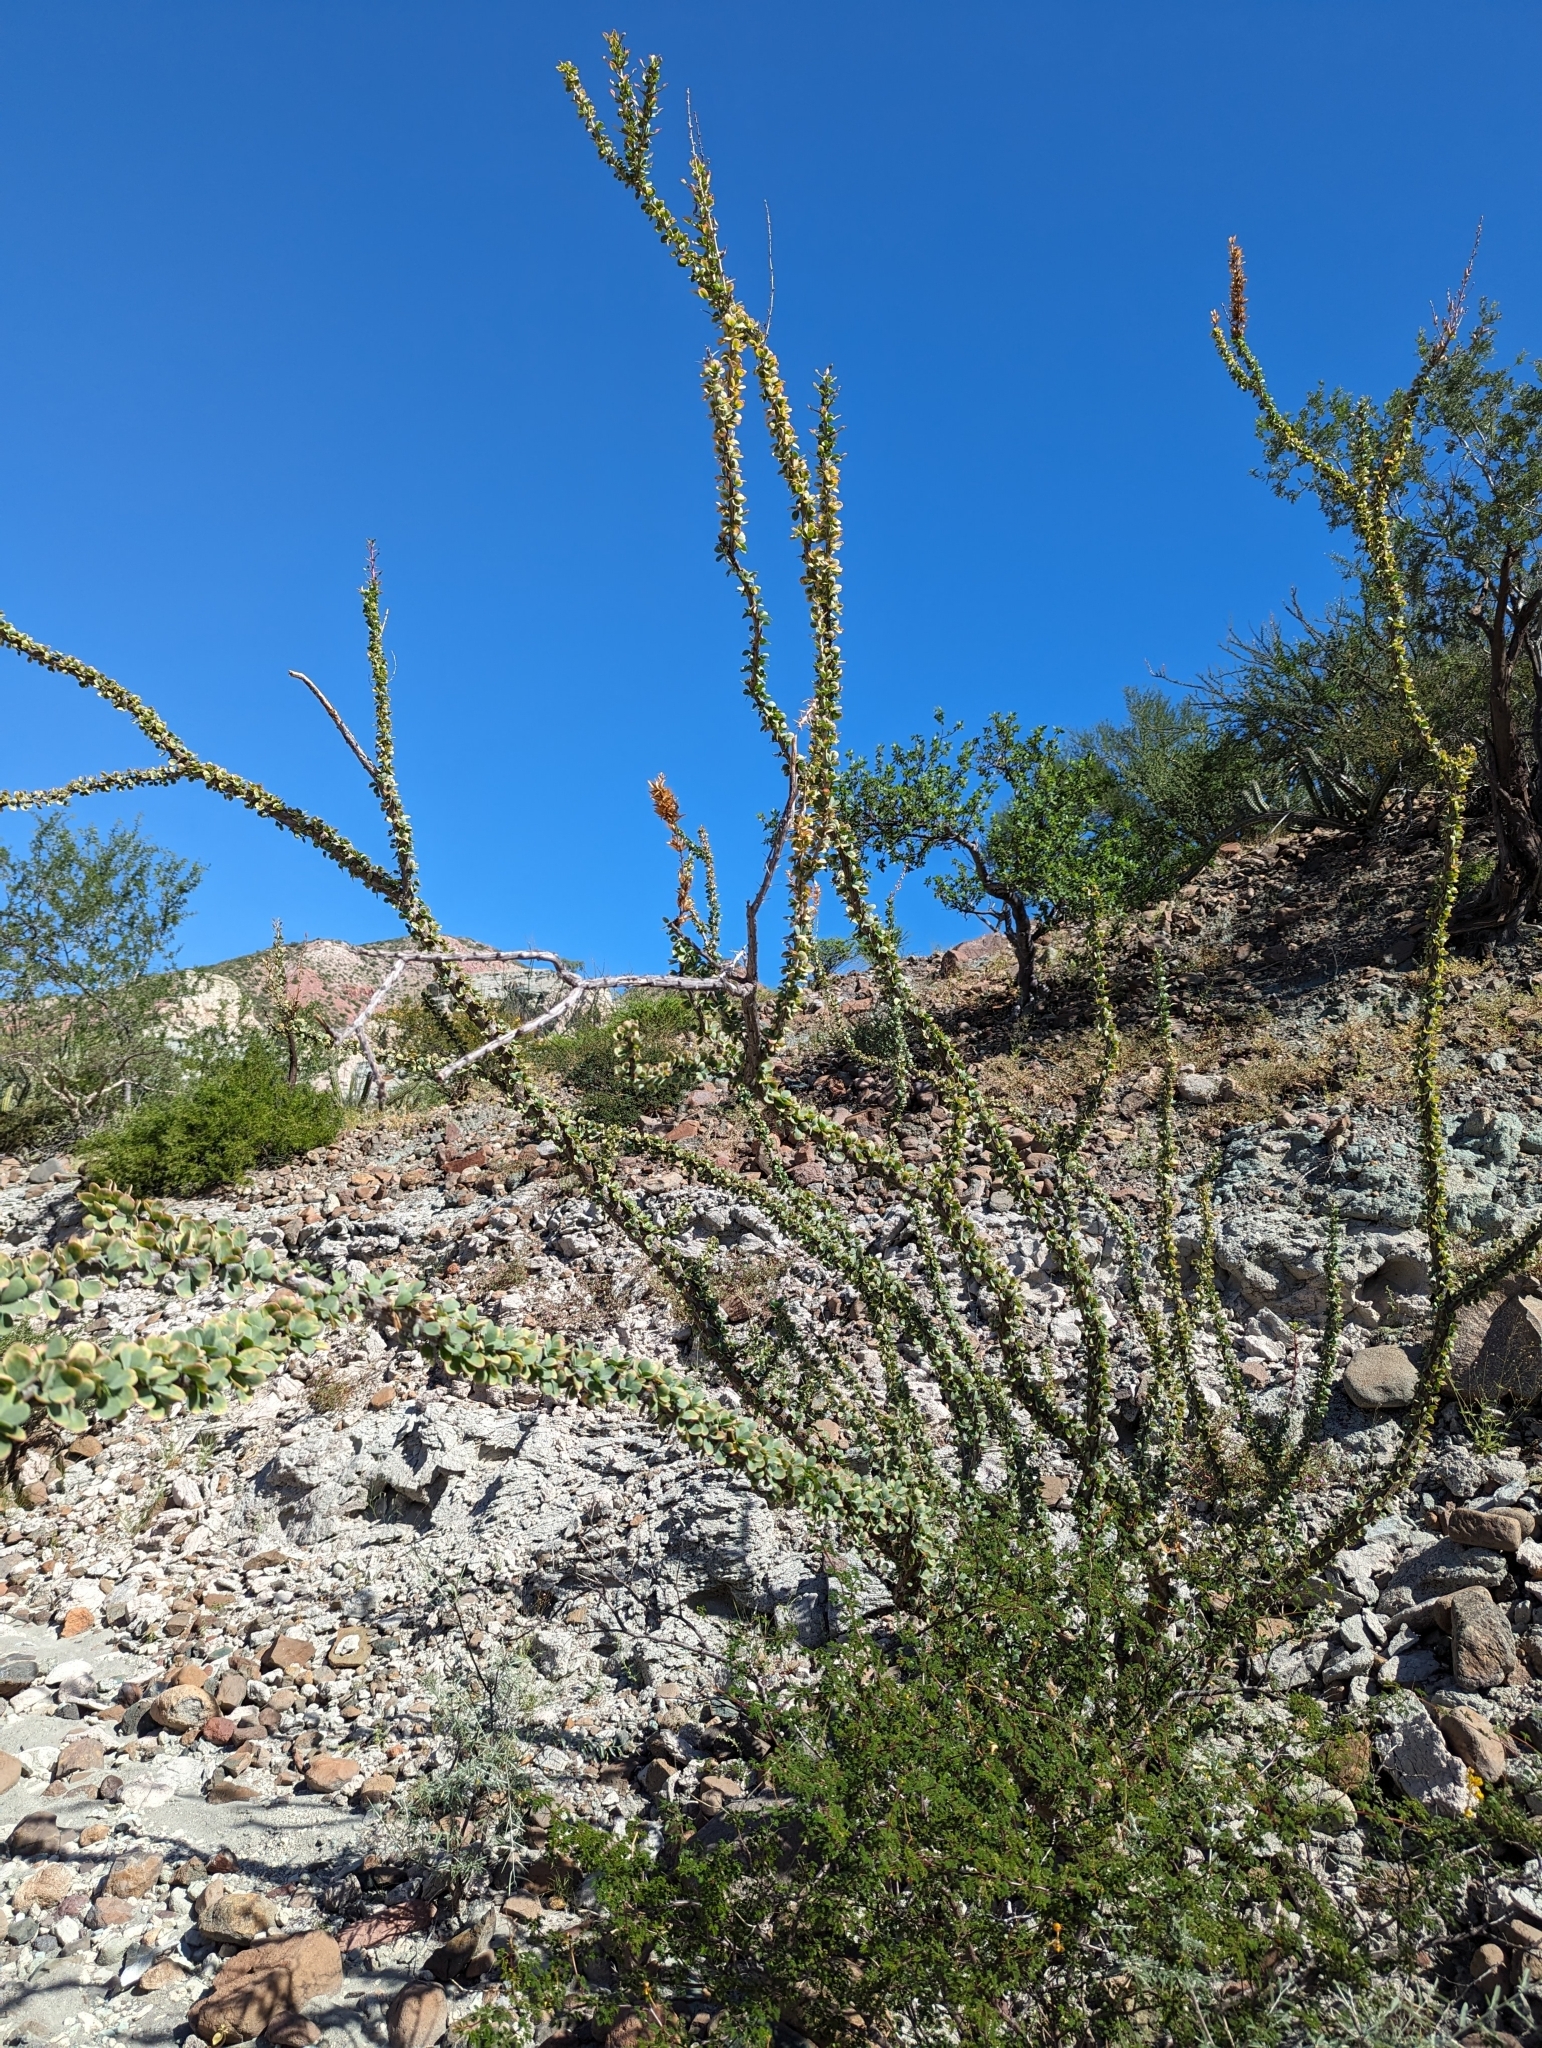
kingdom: Plantae
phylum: Tracheophyta
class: Magnoliopsida
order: Ericales
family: Fouquieriaceae
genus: Fouquieria
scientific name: Fouquieria burragei
